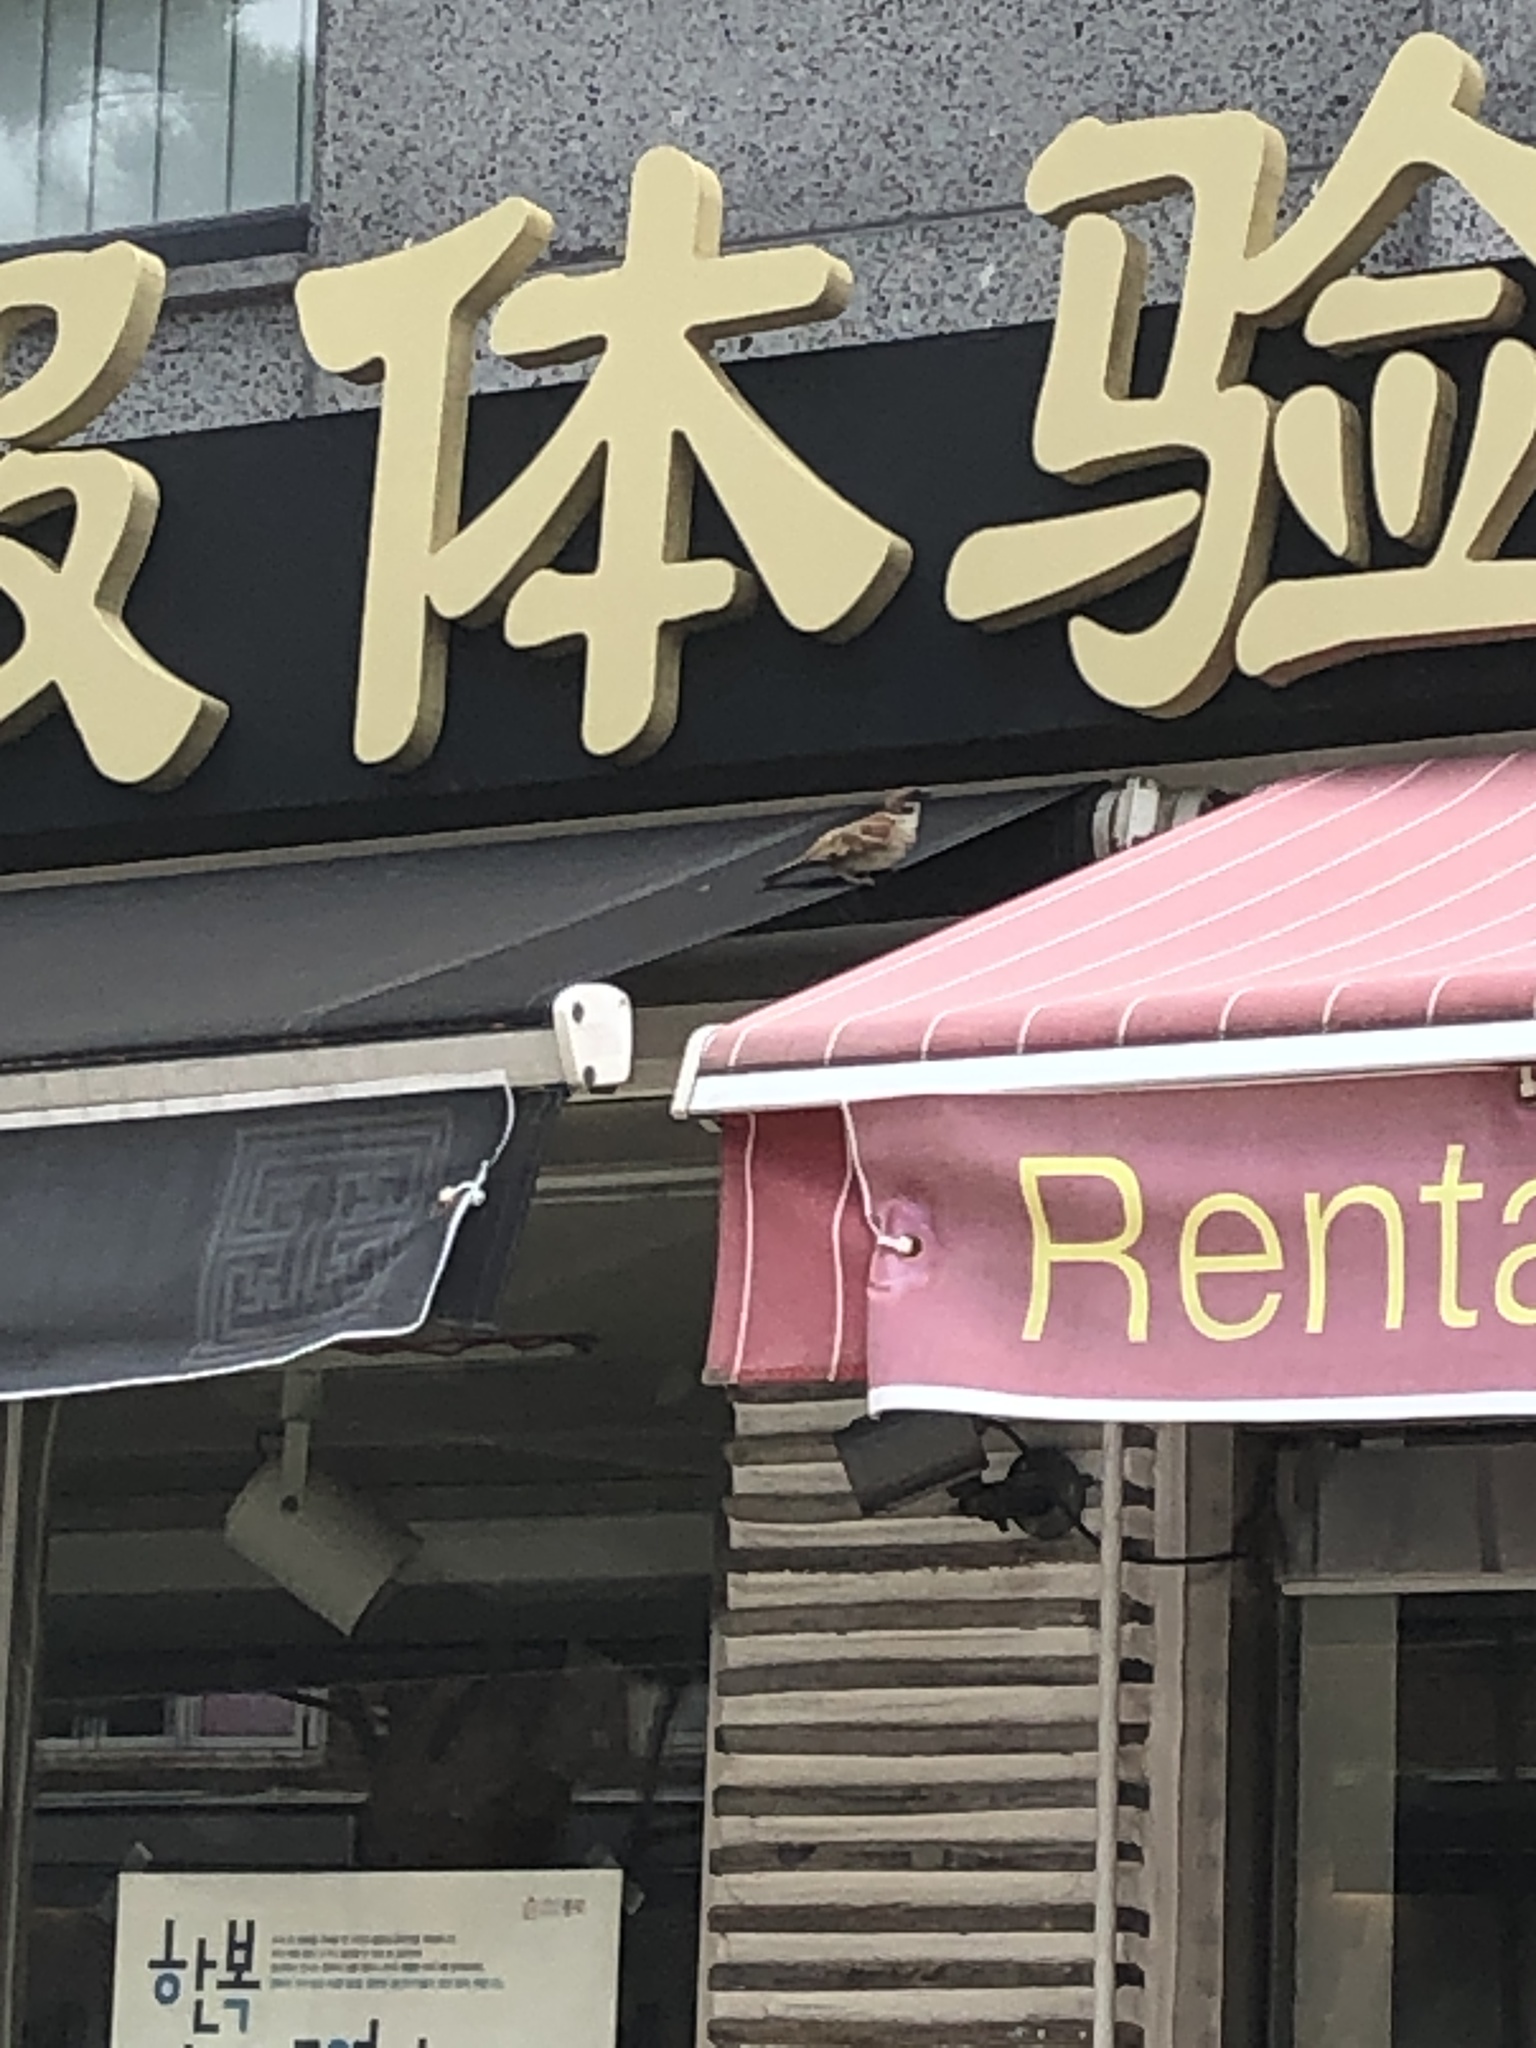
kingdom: Animalia
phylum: Chordata
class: Aves
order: Passeriformes
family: Passeridae
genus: Passer
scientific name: Passer montanus
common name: Eurasian tree sparrow
